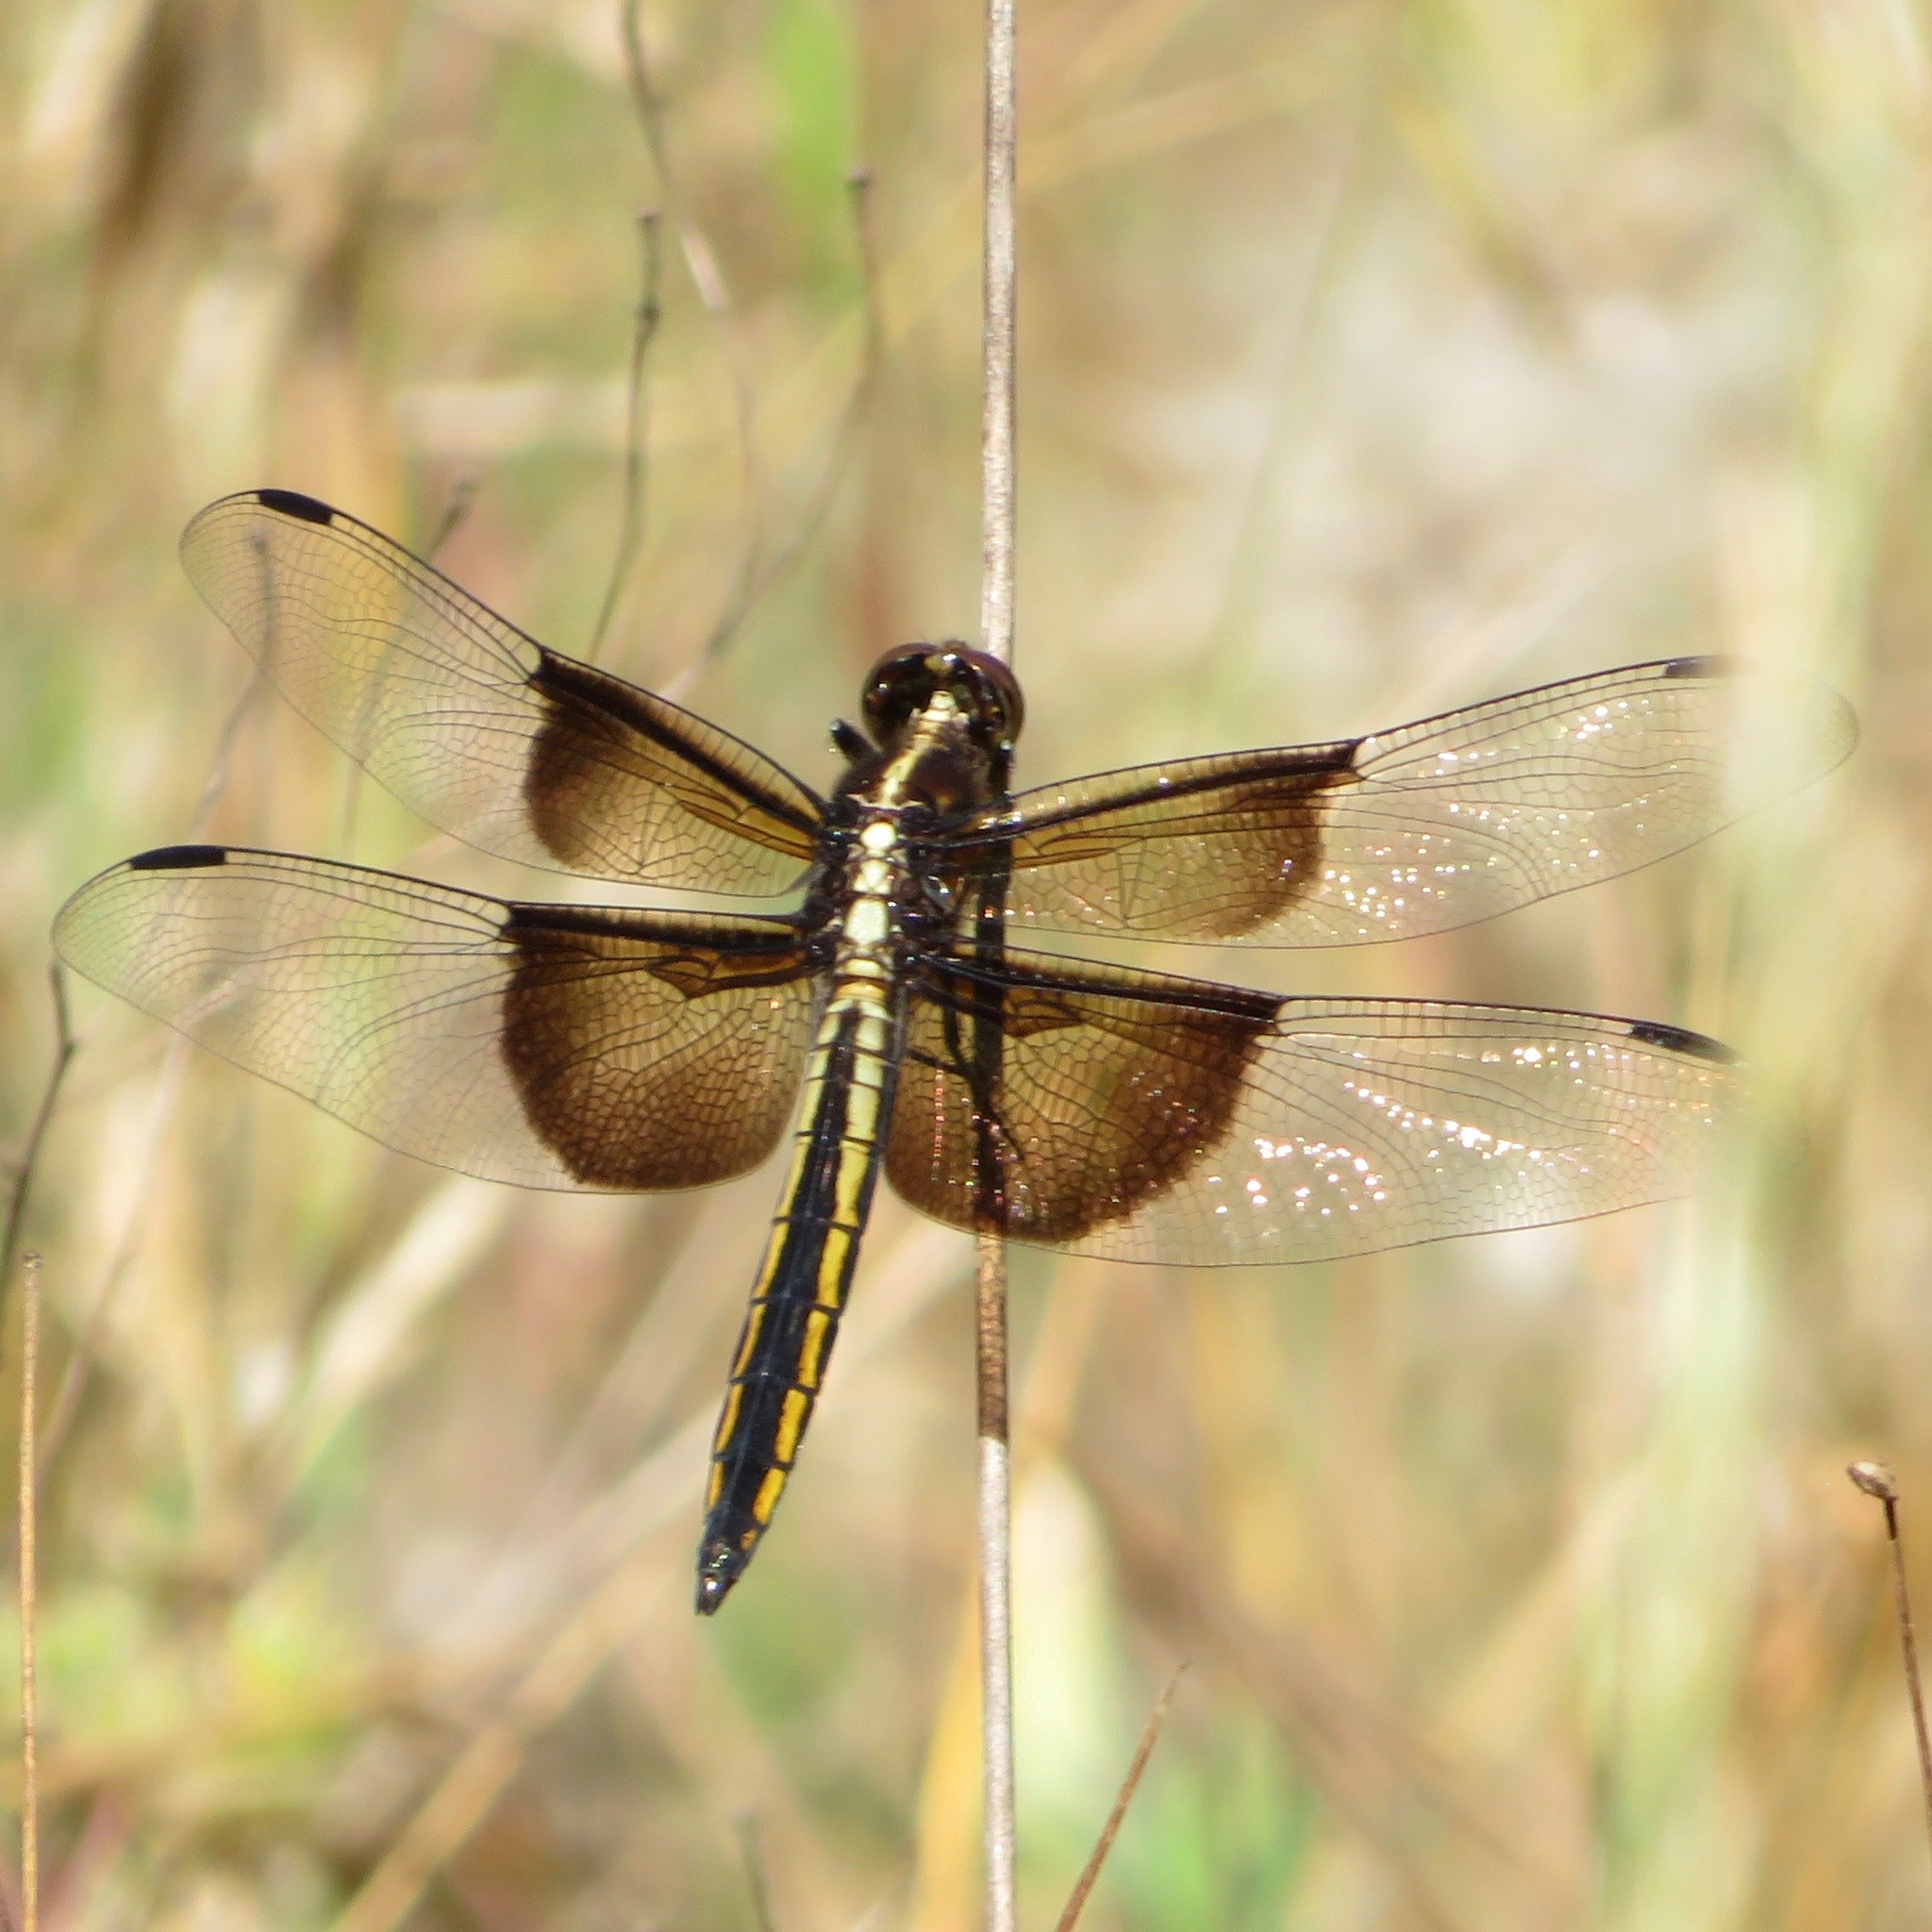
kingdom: Animalia
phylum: Arthropoda
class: Insecta
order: Odonata
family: Libellulidae
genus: Libellula
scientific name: Libellula luctuosa
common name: Widow skimmer
